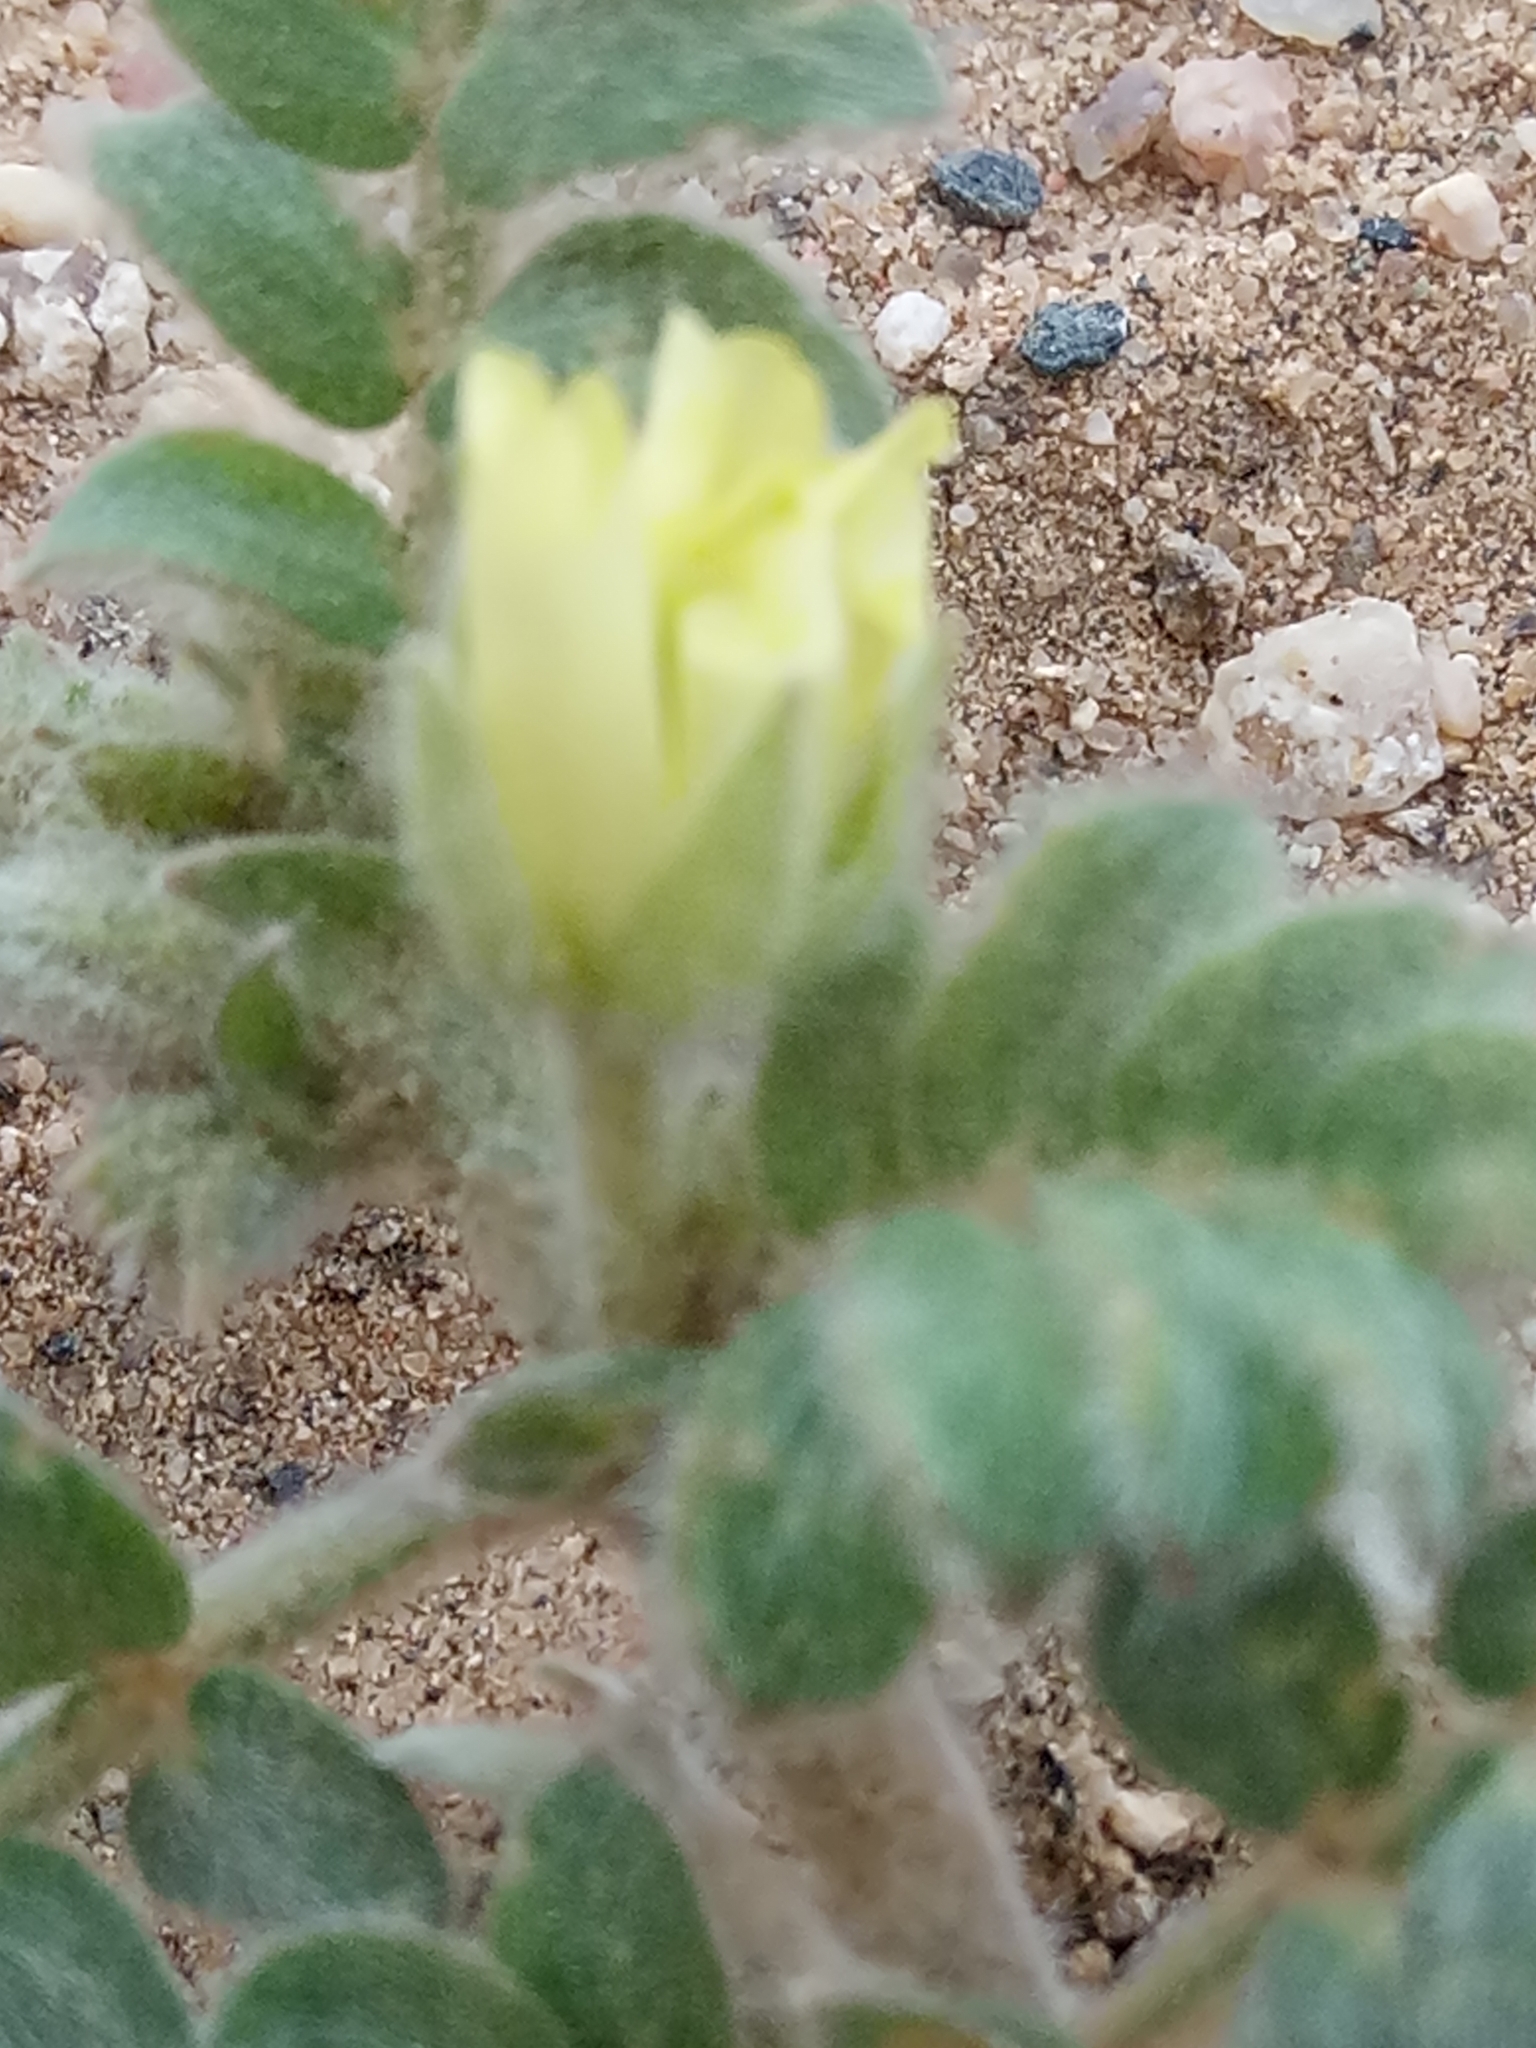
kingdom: Plantae
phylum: Tracheophyta
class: Magnoliopsida
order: Zygophyllales
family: Zygophyllaceae
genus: Tribulus
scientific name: Tribulus mollis
